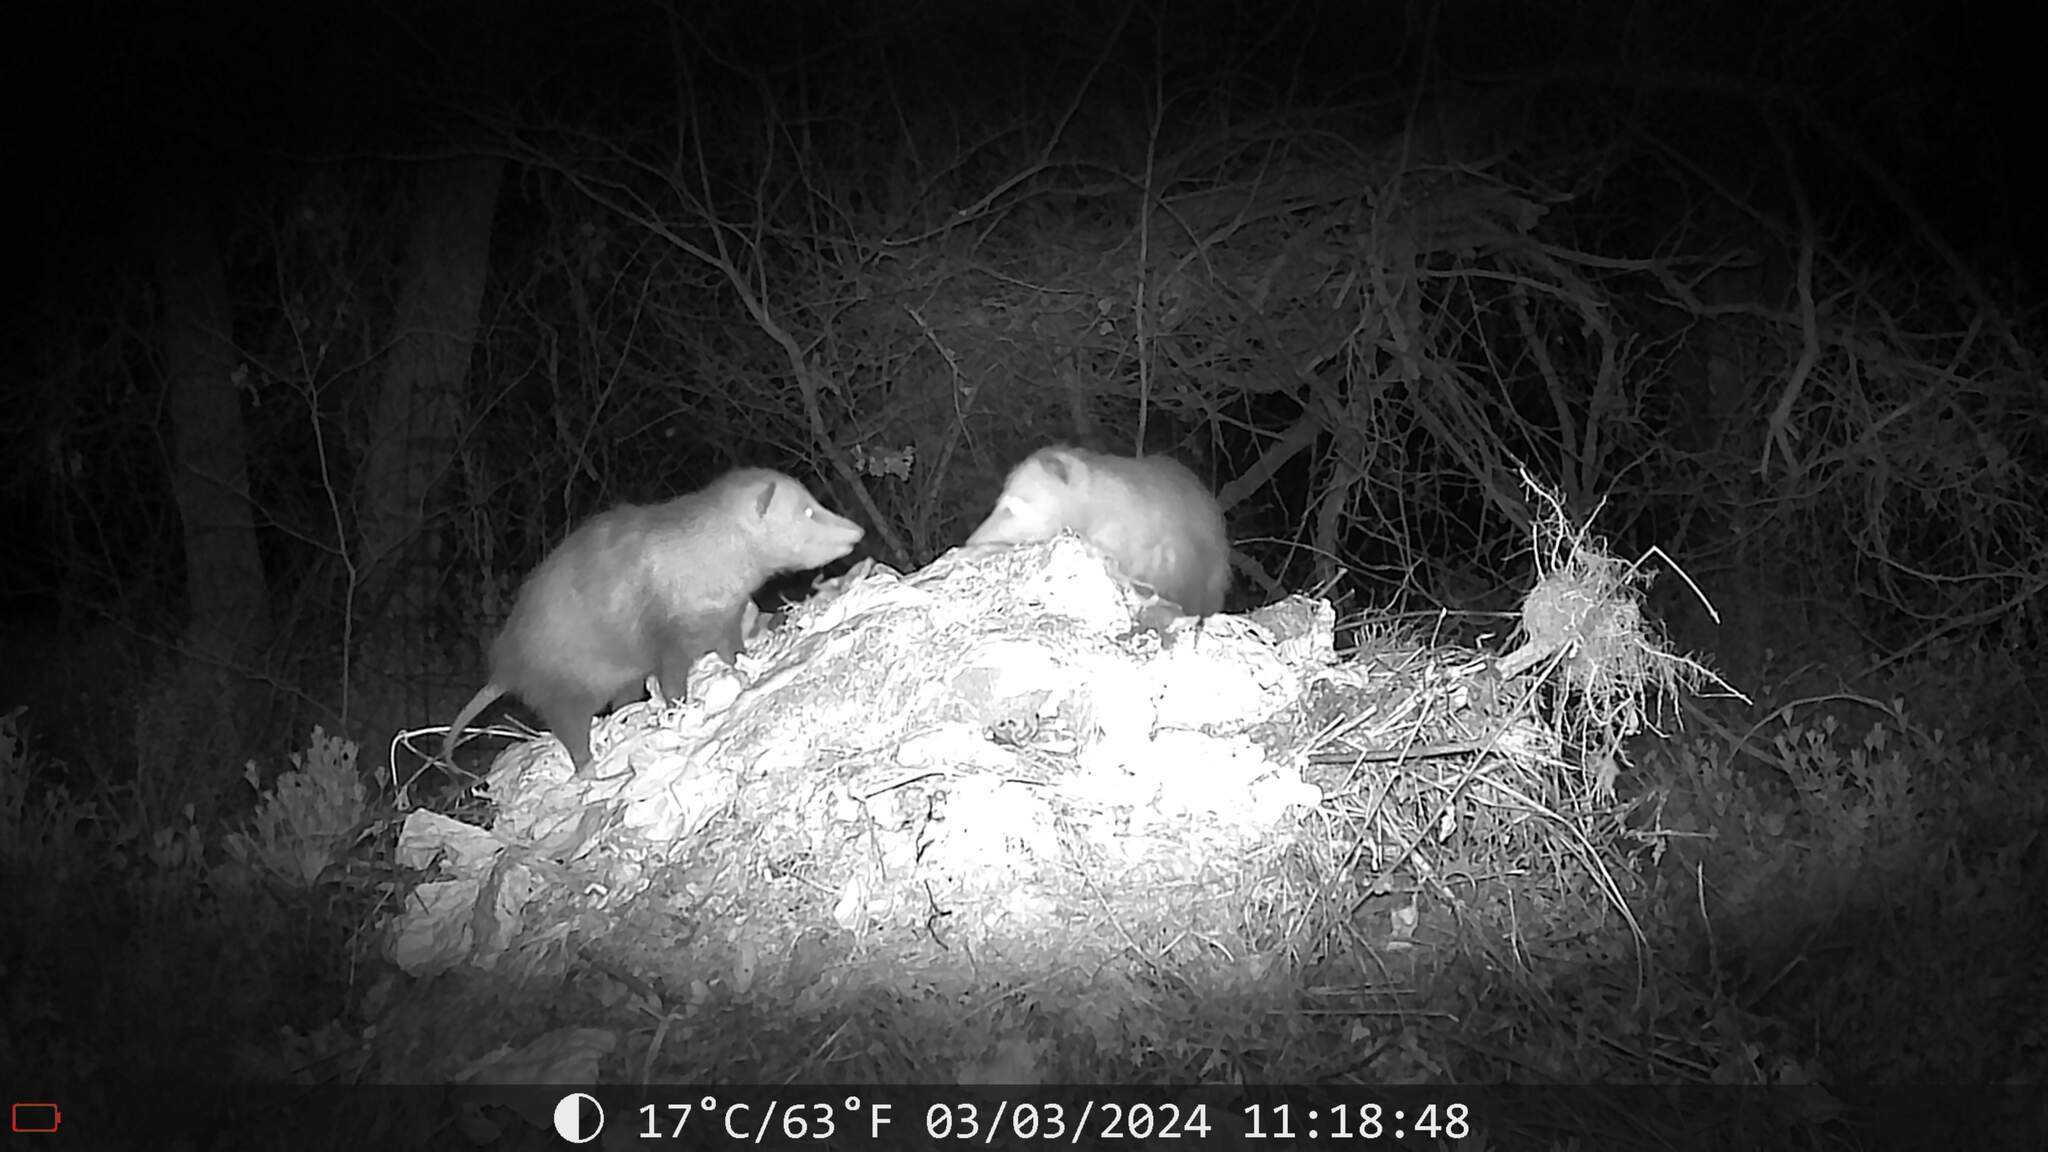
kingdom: Animalia
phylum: Chordata
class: Mammalia
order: Didelphimorphia
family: Didelphidae
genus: Didelphis
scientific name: Didelphis virginiana
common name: Virginia opossum
